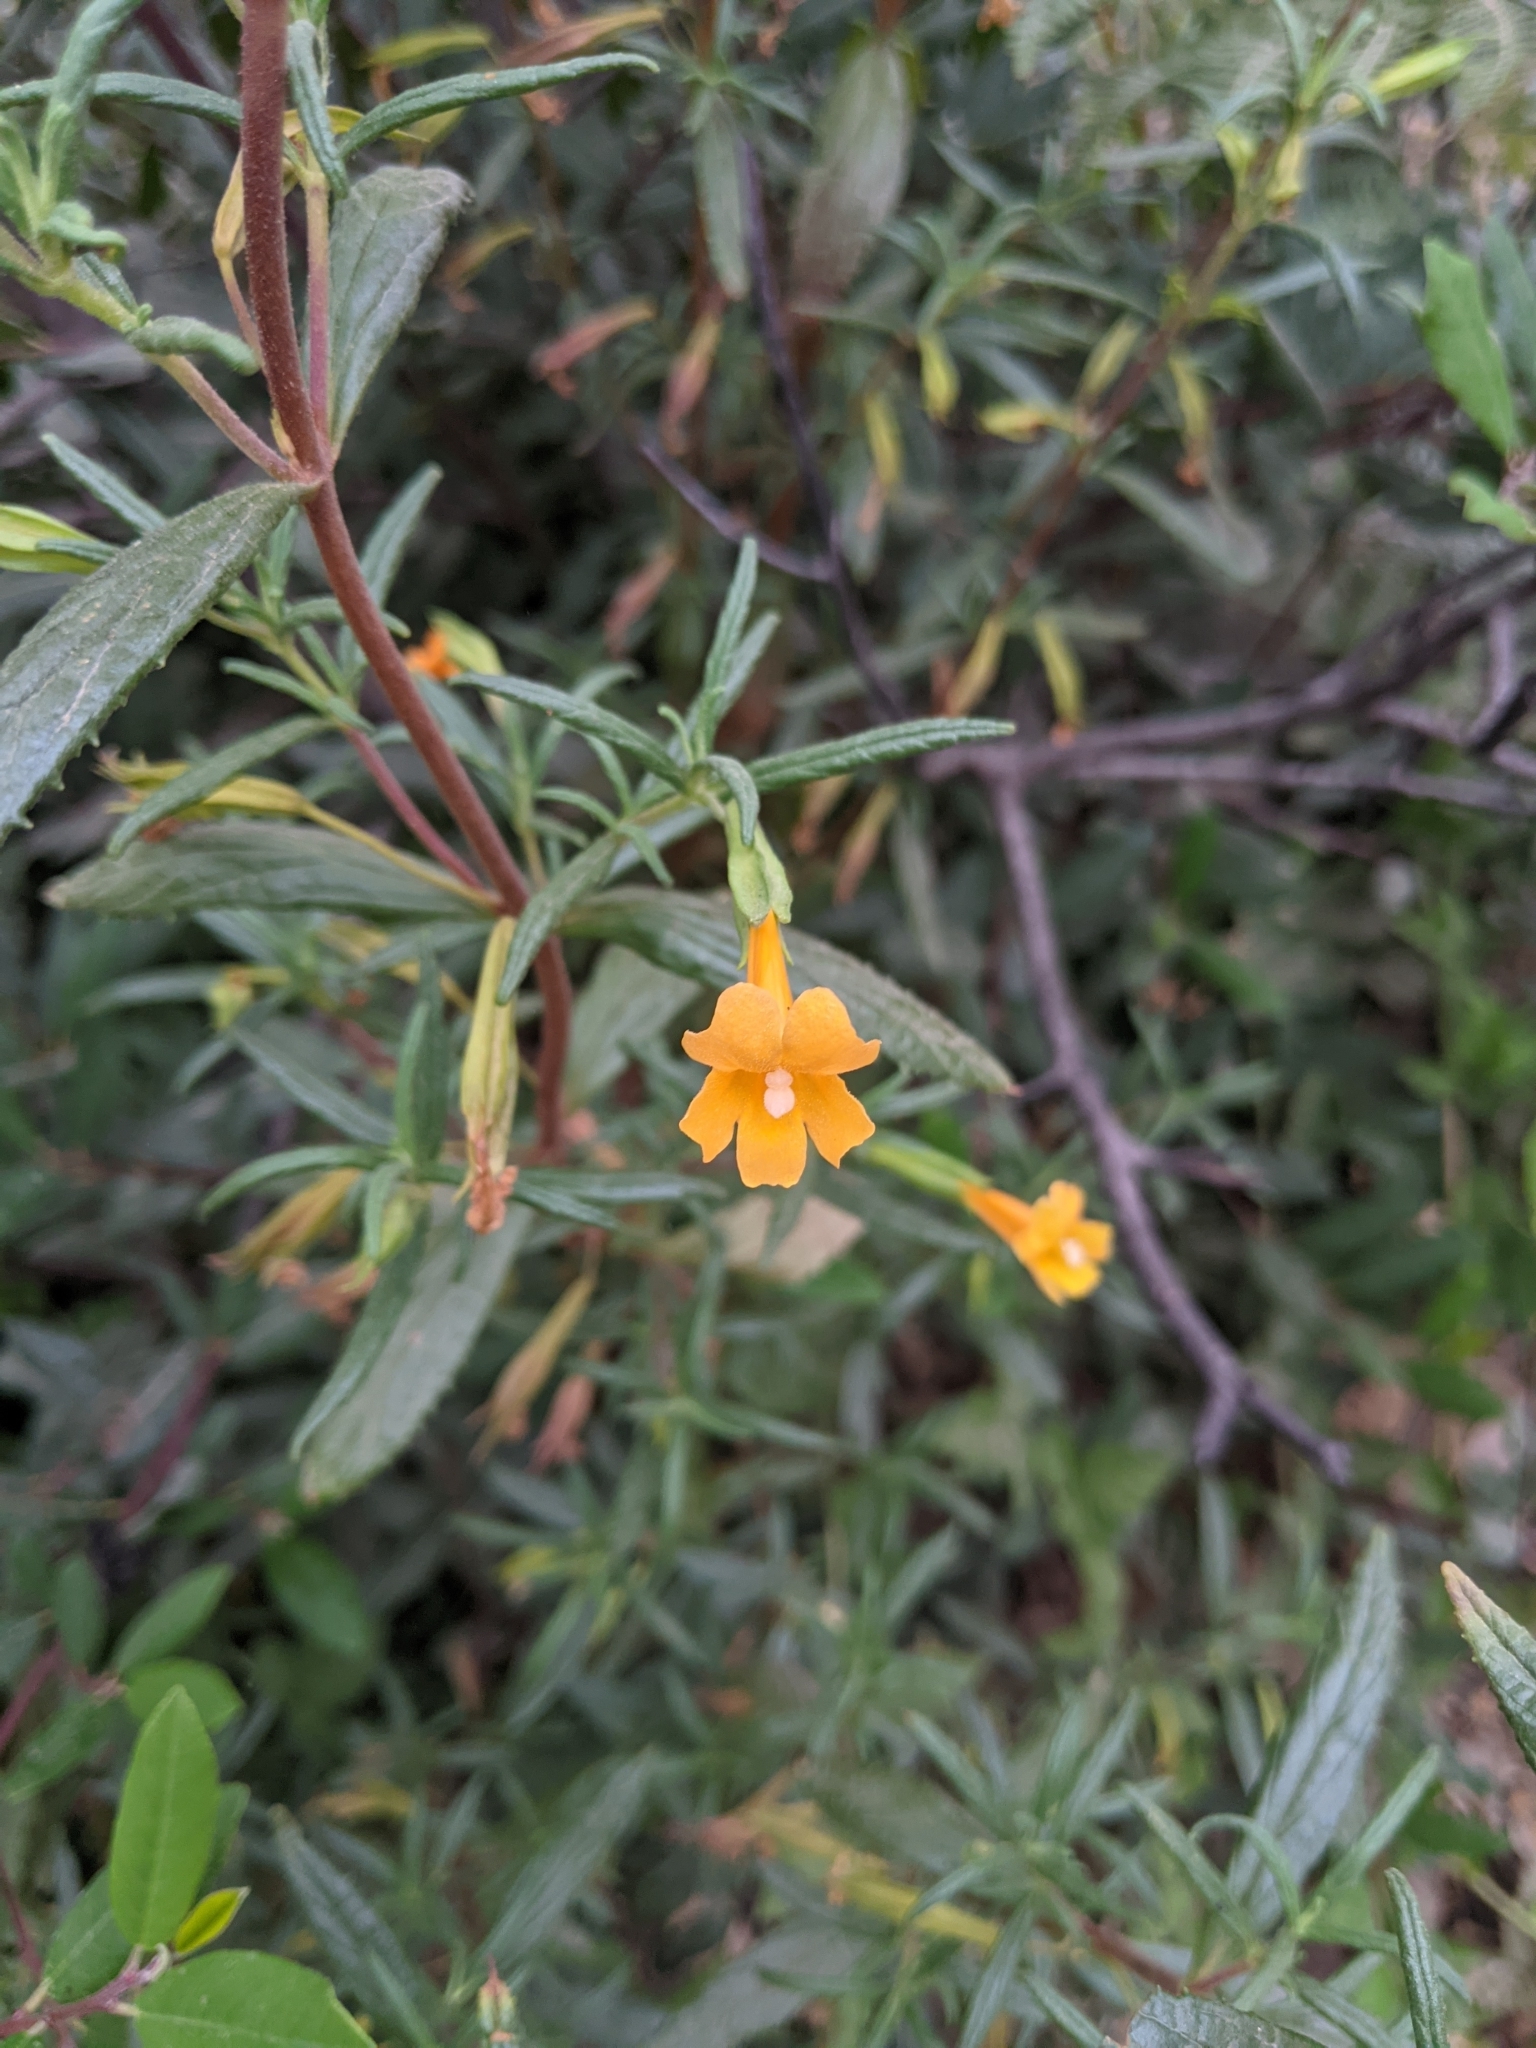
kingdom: Plantae
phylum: Tracheophyta
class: Magnoliopsida
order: Lamiales
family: Phrymaceae
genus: Diplacus
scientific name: Diplacus aurantiacus
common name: Bush monkey-flower
